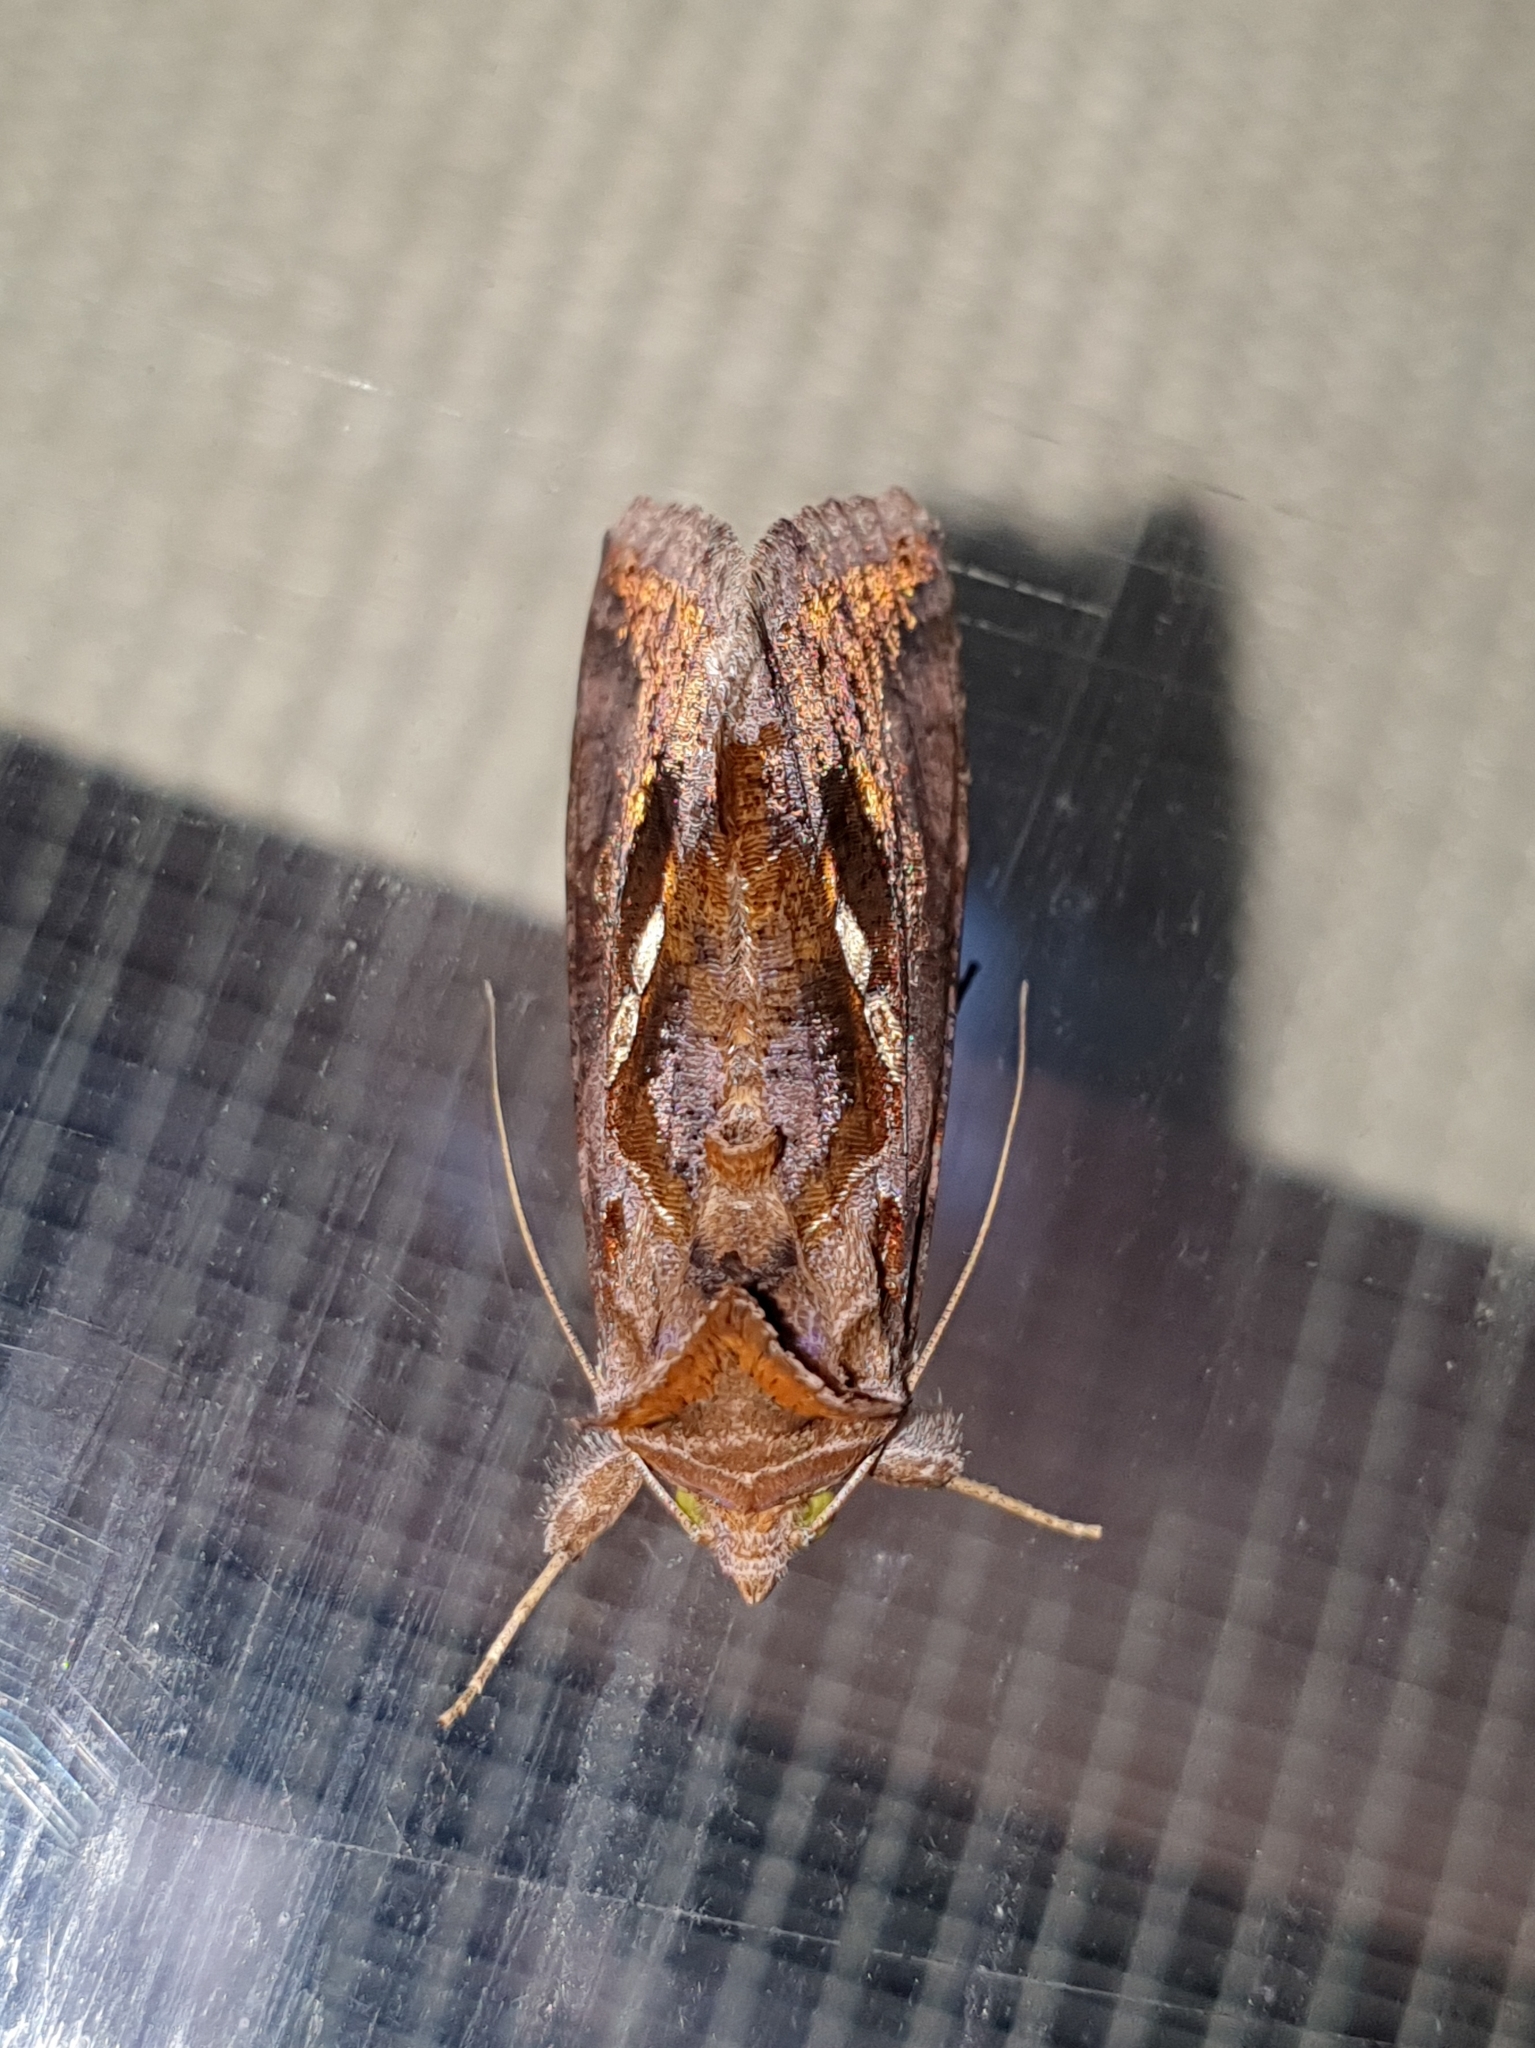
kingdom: Animalia
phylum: Arthropoda
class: Insecta
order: Lepidoptera
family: Noctuidae
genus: Chrysodeixis
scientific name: Chrysodeixis eriosoma
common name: Green garden looper
